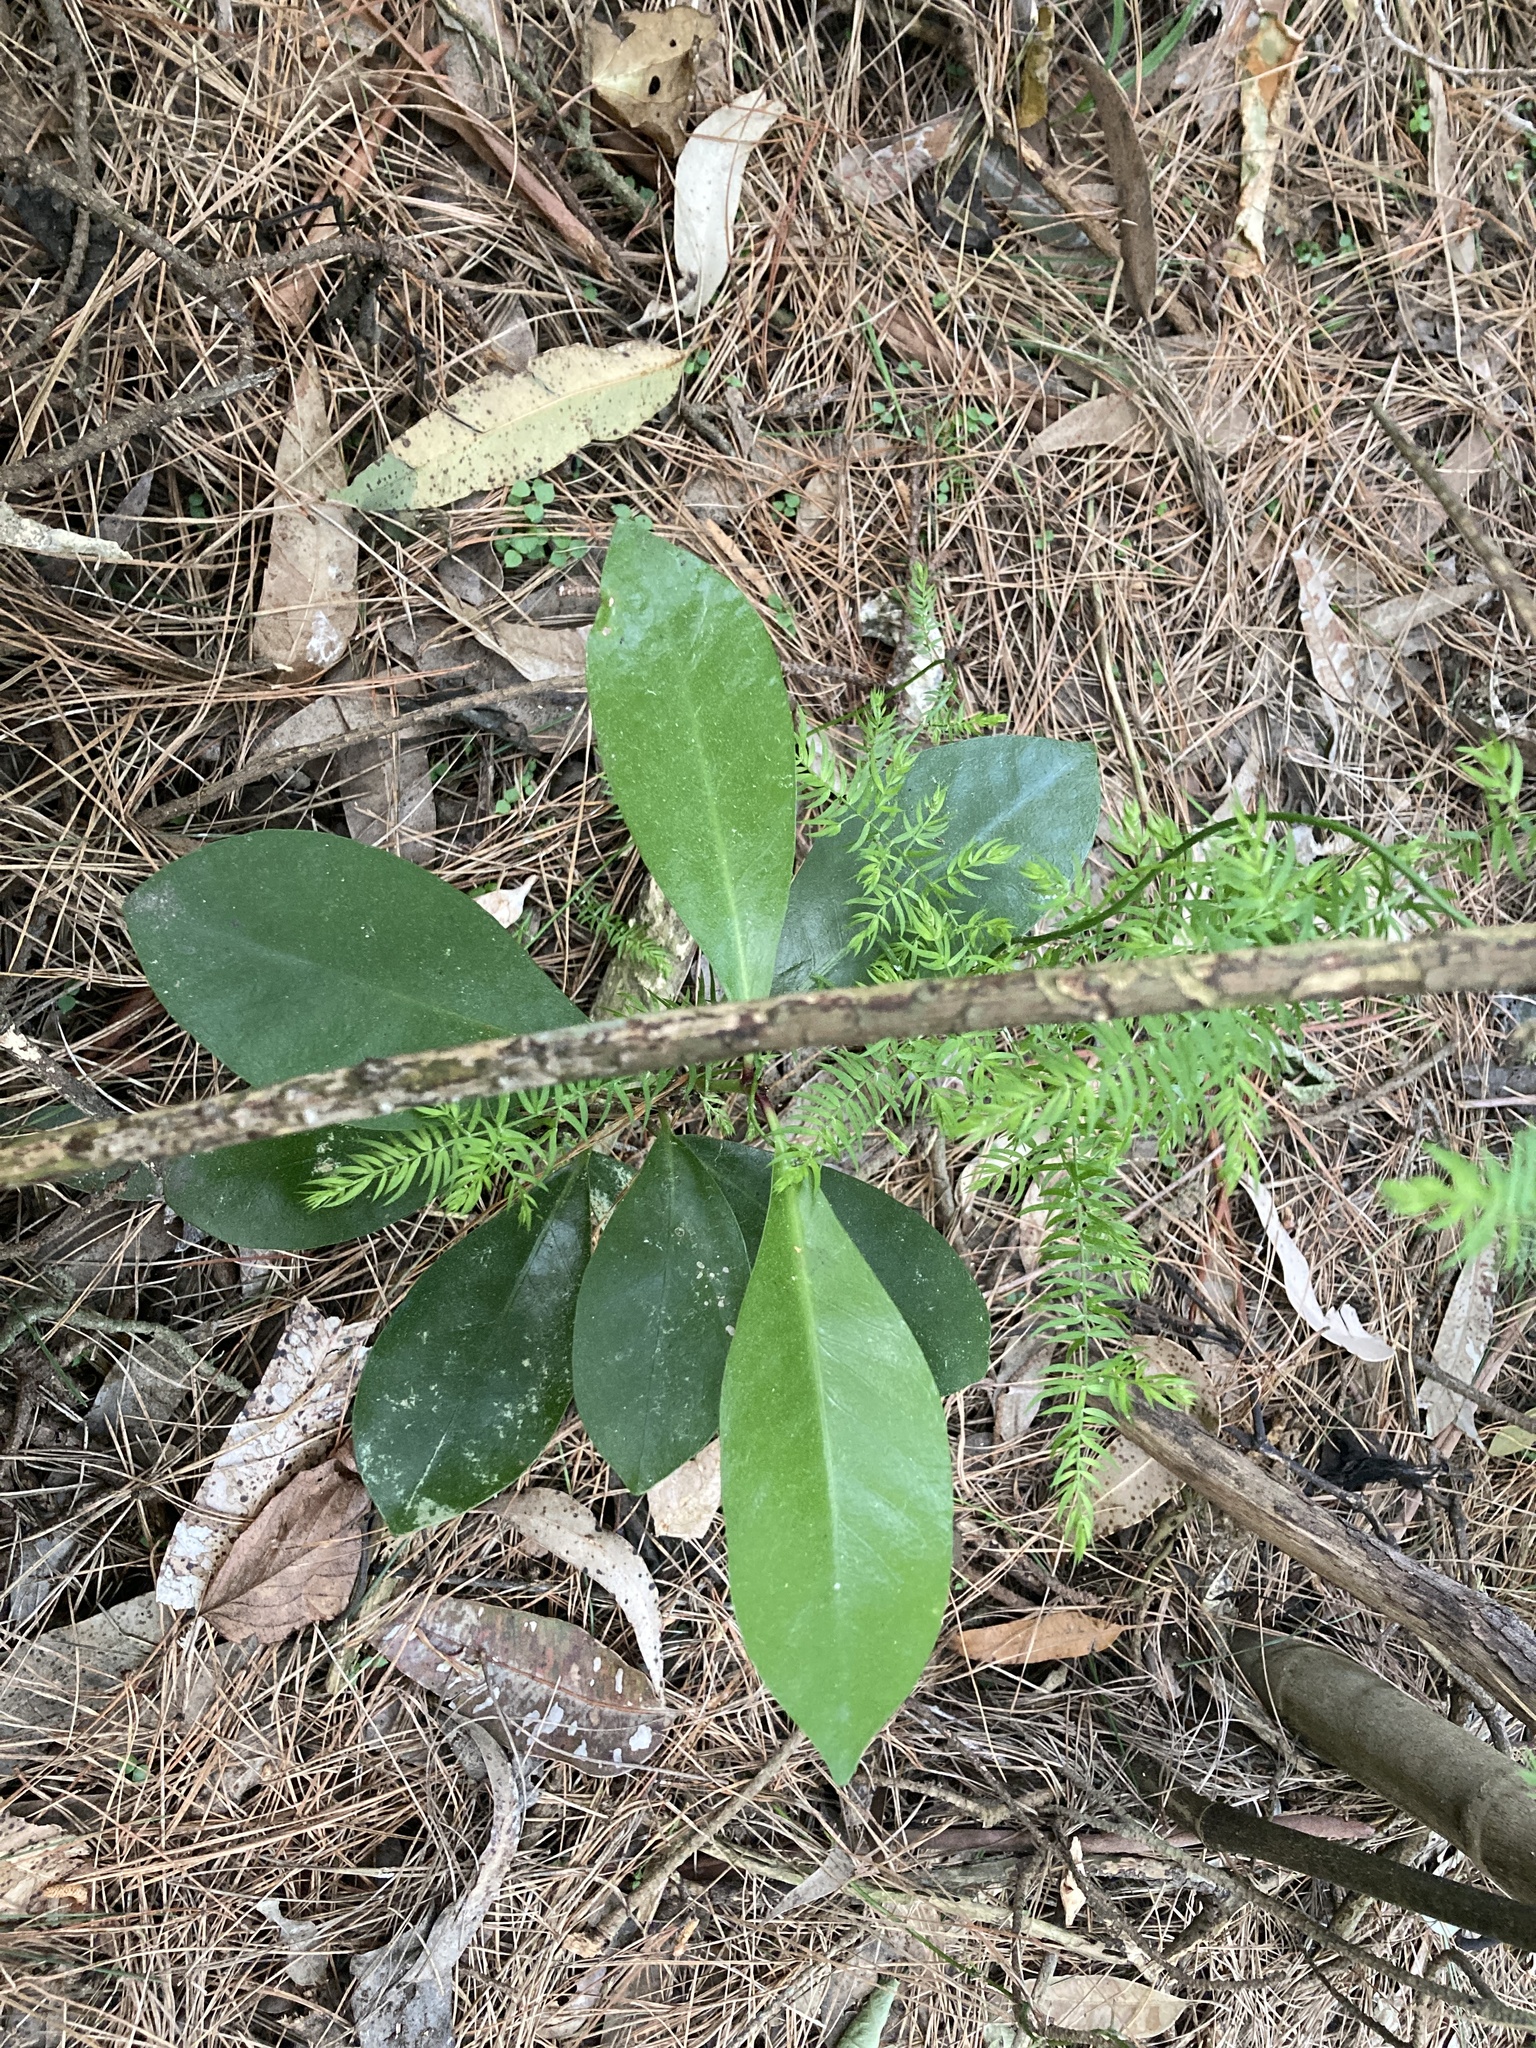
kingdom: Plantae
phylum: Tracheophyta
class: Magnoliopsida
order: Cucurbitales
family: Corynocarpaceae
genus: Corynocarpus
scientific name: Corynocarpus laevigatus
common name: New zealand laurel
